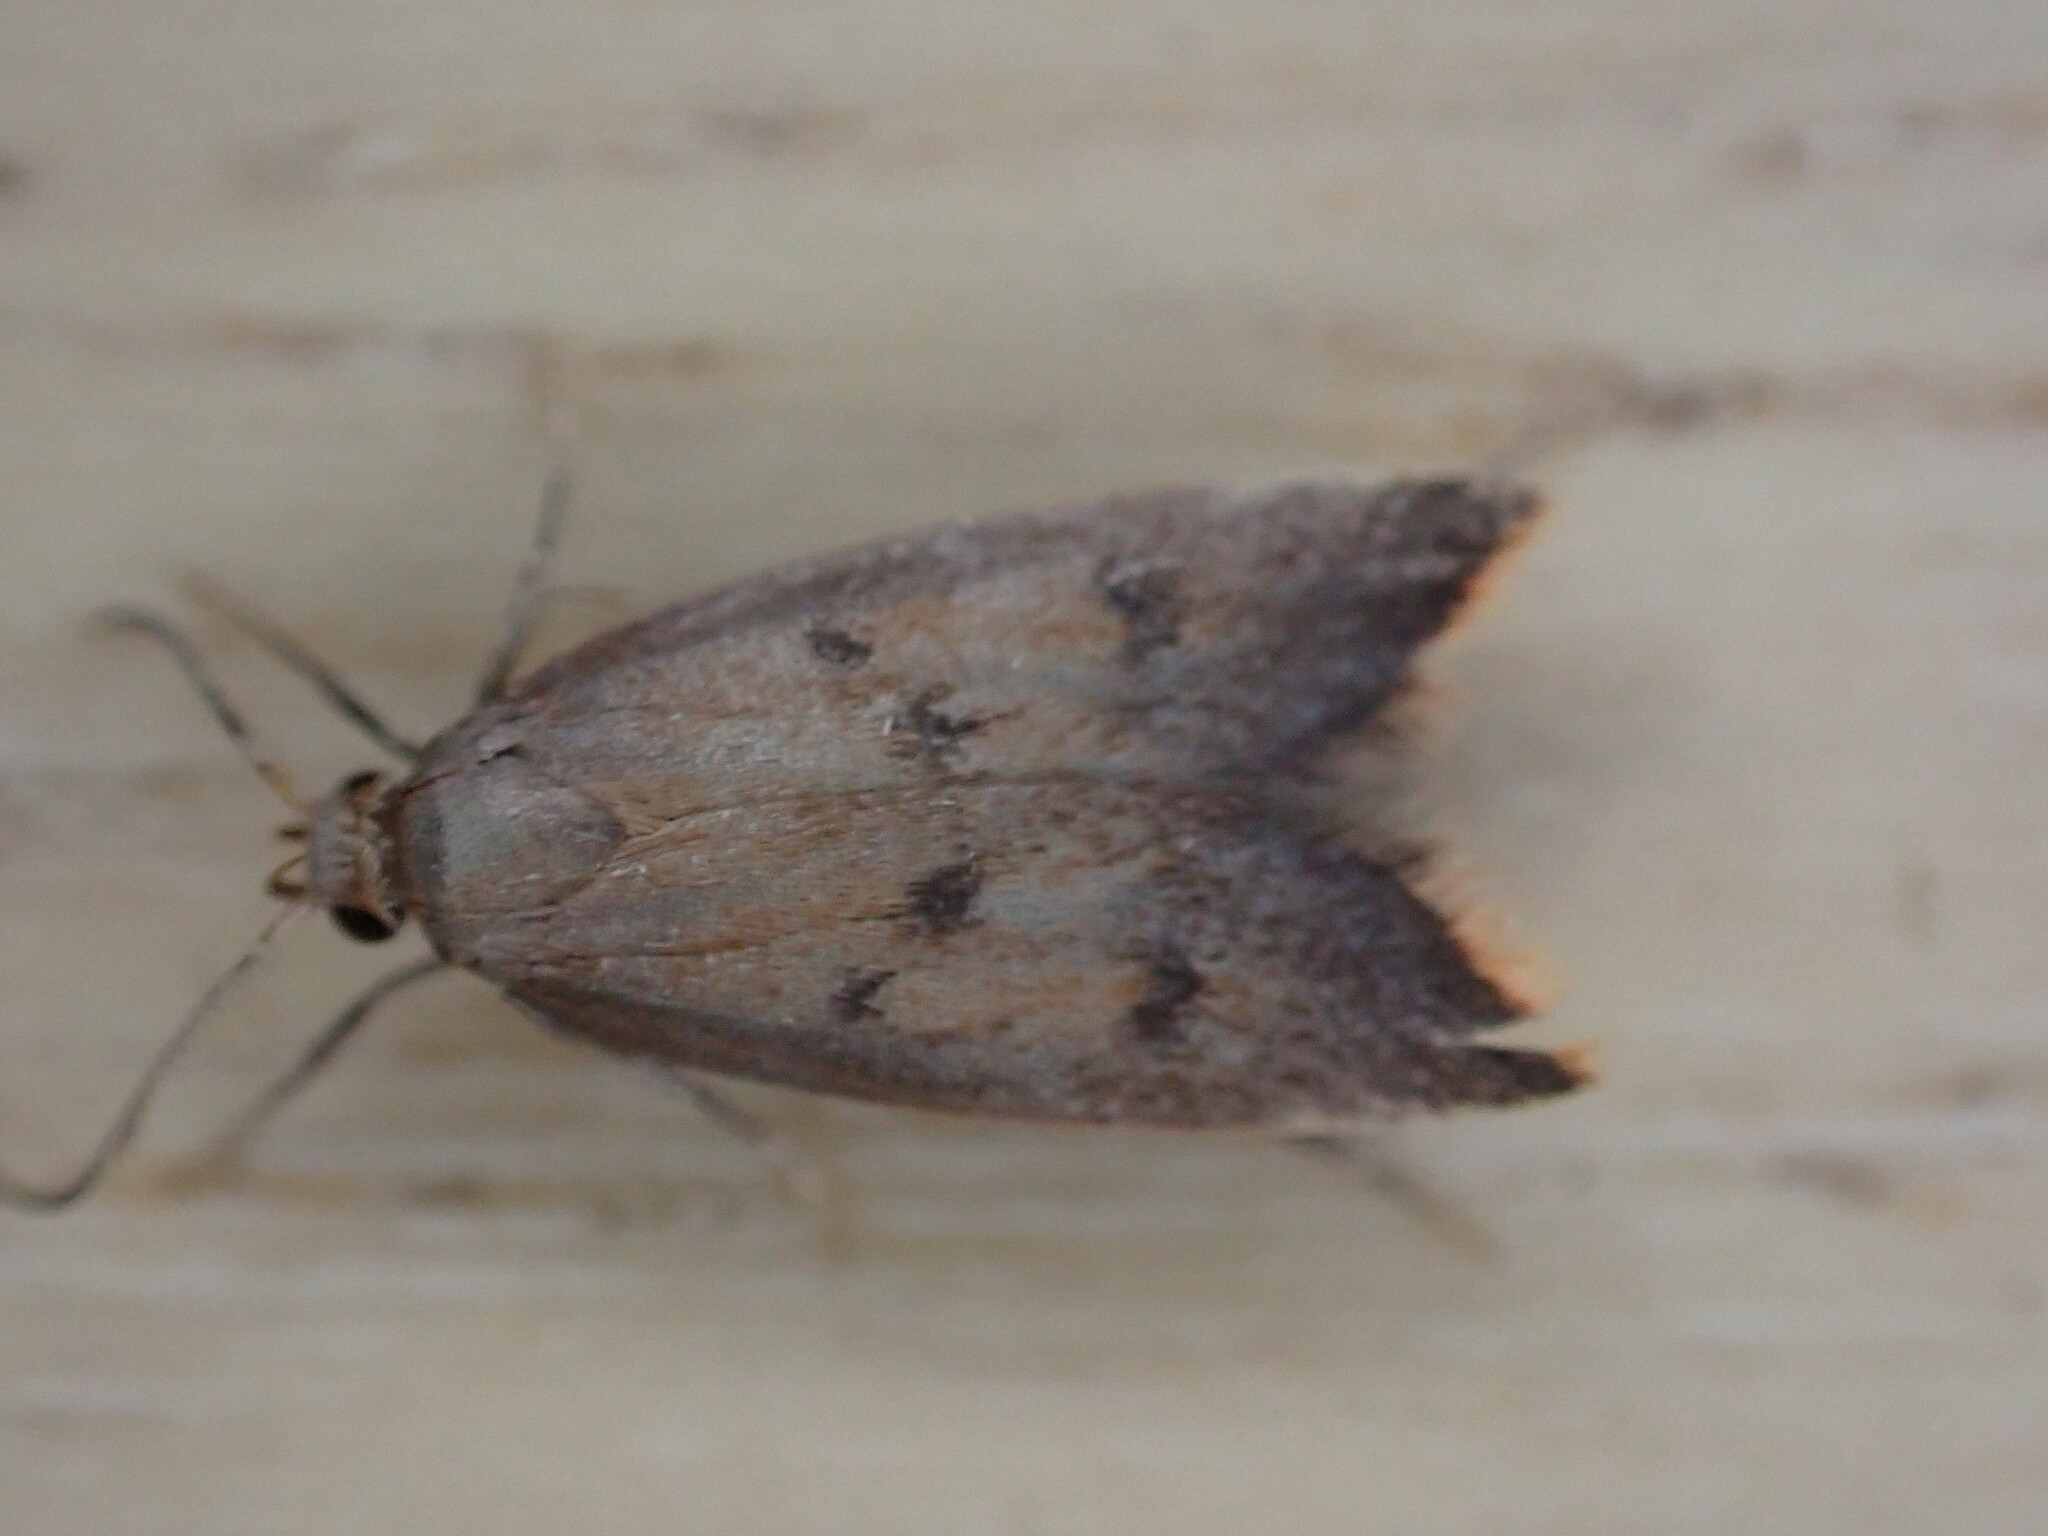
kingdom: Animalia
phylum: Arthropoda
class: Insecta
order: Lepidoptera
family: Oecophoridae
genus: Tachystola
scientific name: Tachystola acroxantha
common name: Ruddy streak
